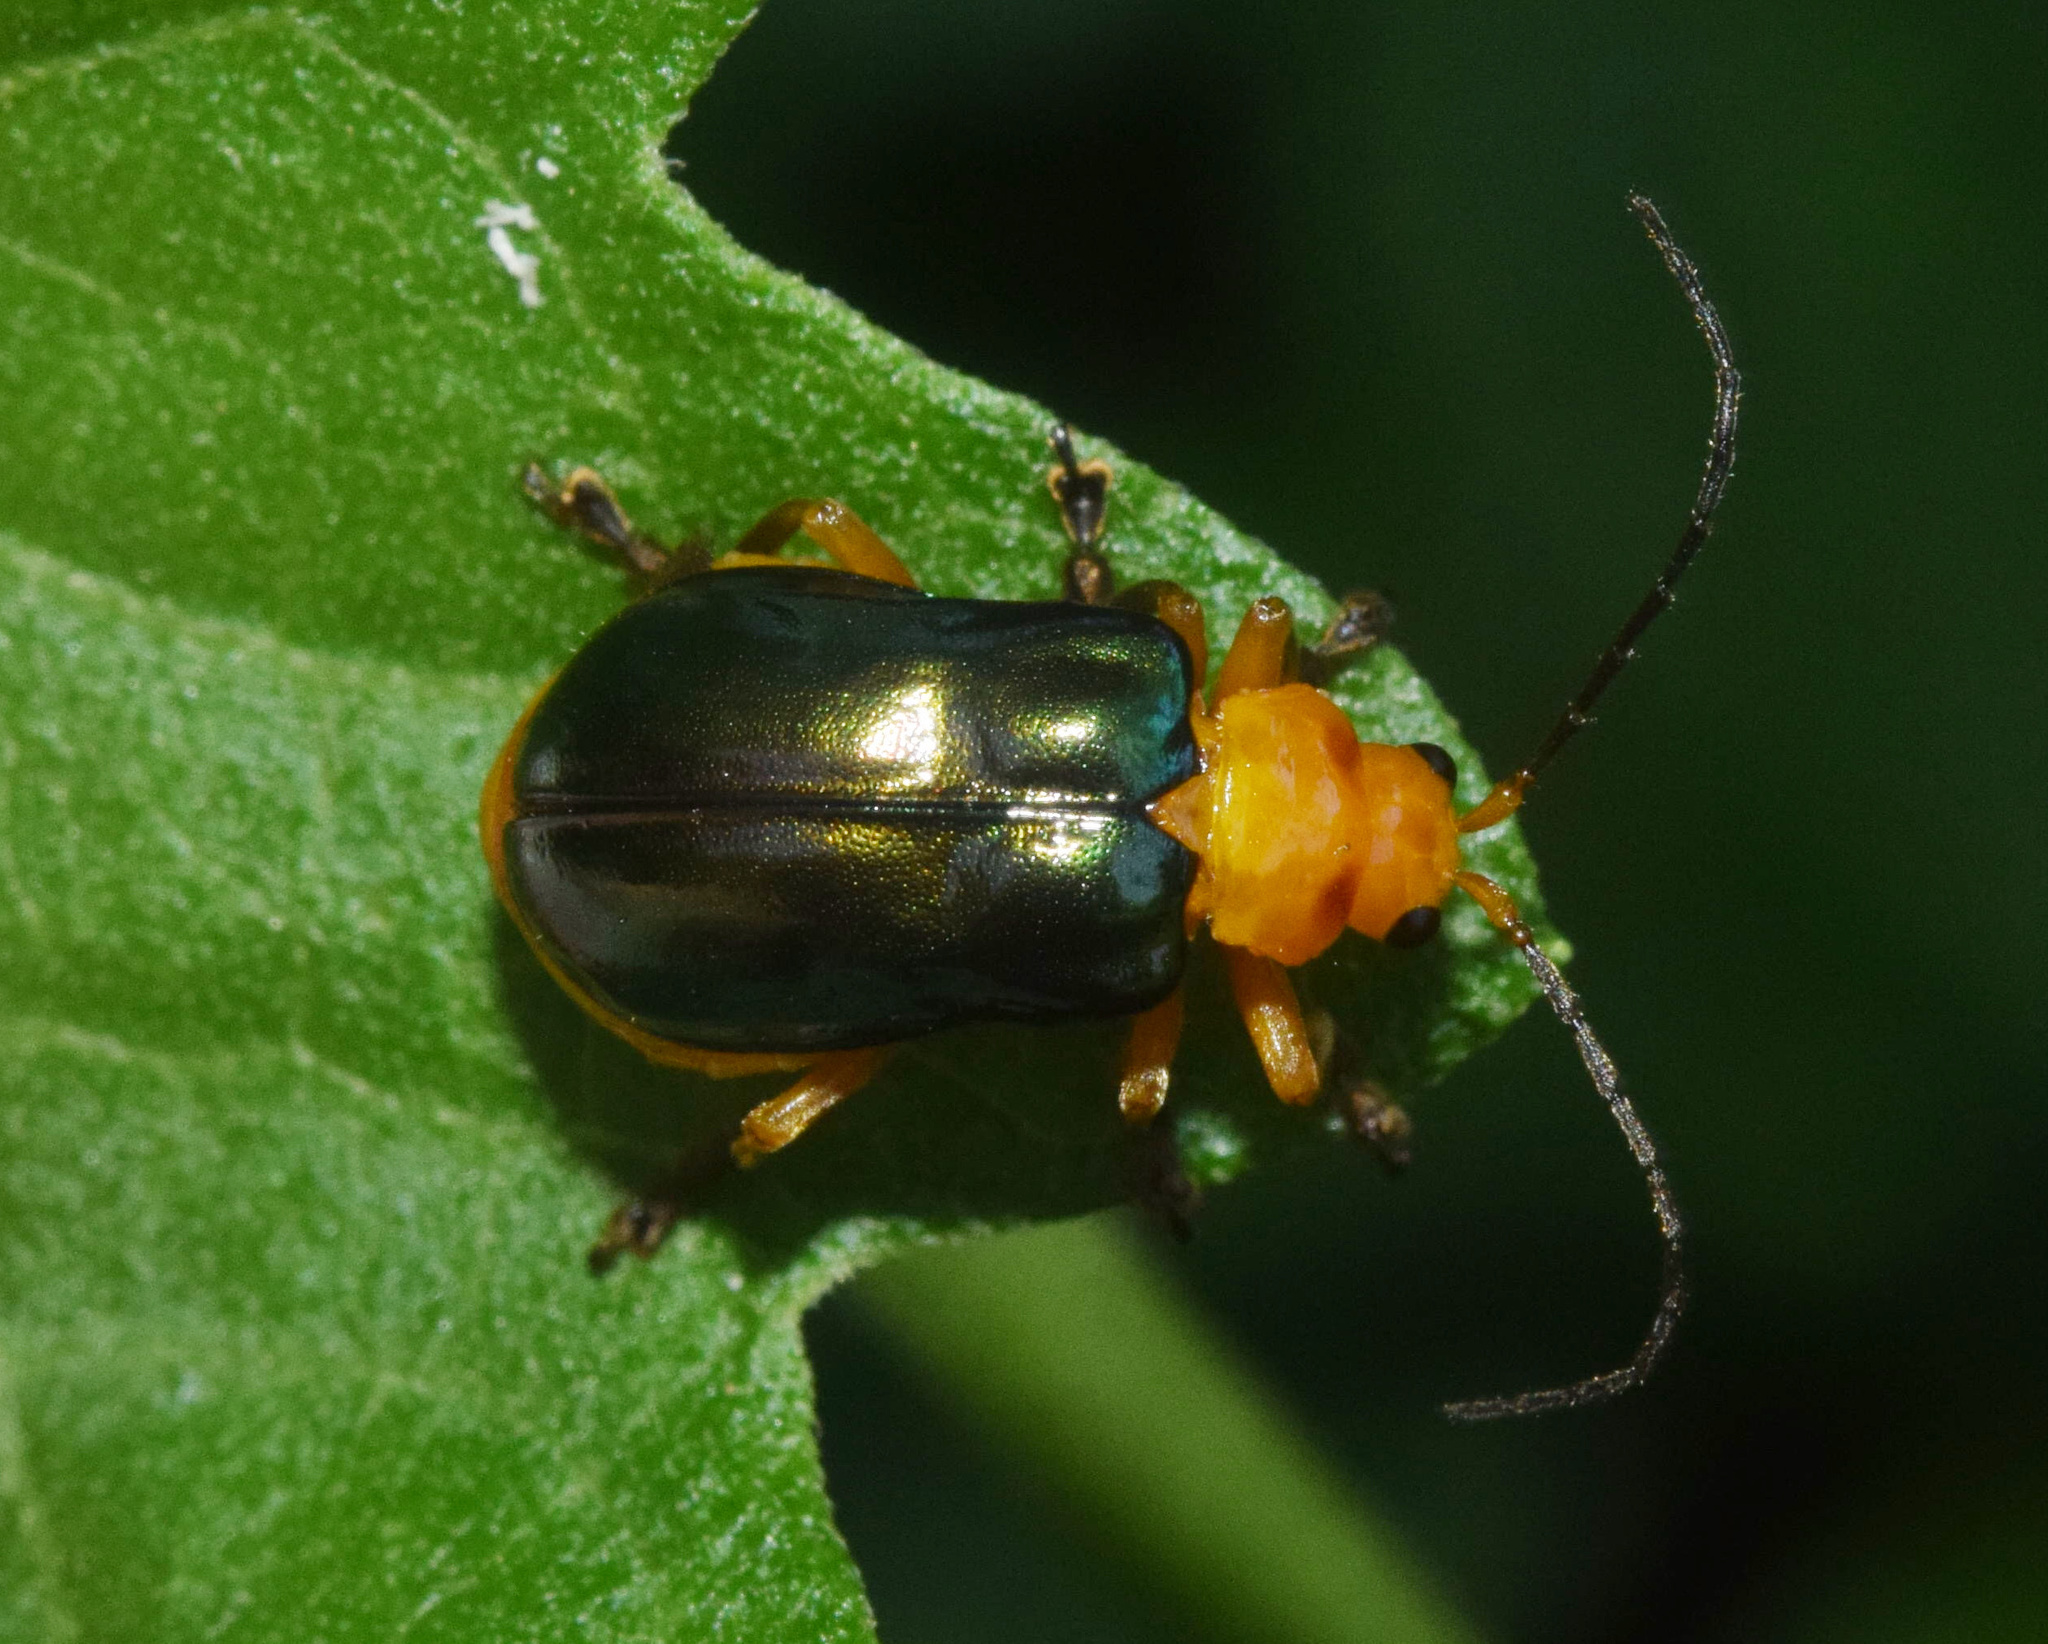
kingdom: Animalia
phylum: Arthropoda
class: Insecta
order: Coleoptera
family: Chrysomelidae
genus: Cannonia
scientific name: Cannonia
